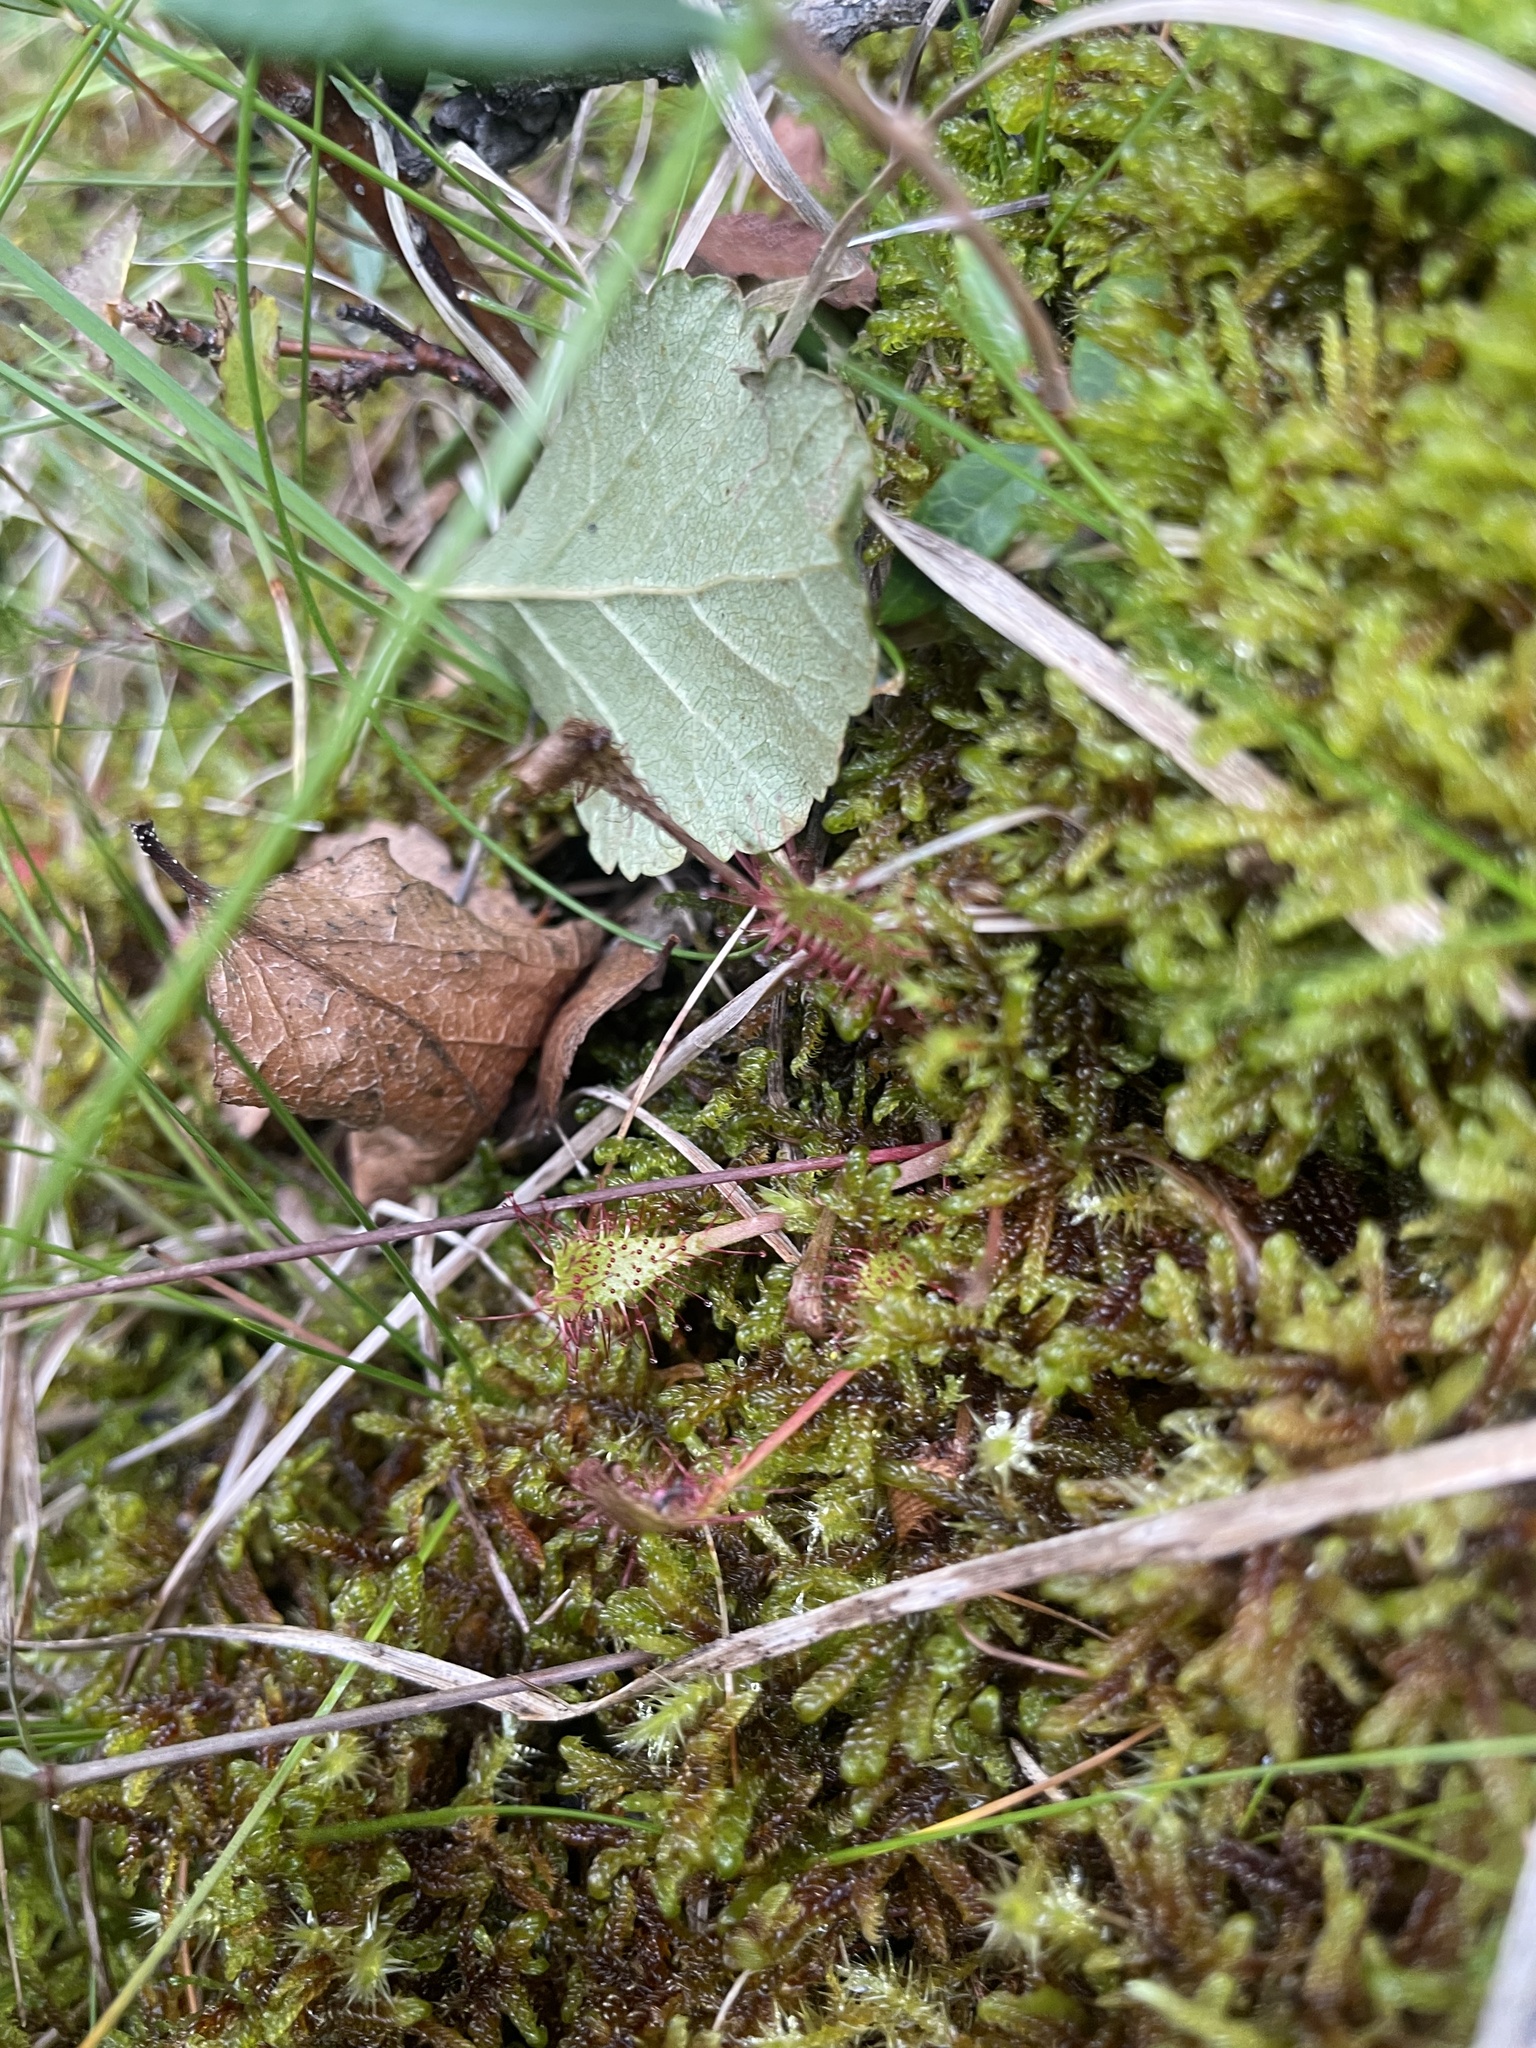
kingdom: Plantae
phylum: Tracheophyta
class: Magnoliopsida
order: Caryophyllales
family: Droseraceae
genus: Drosera
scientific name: Drosera anglica
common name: Great sundew
